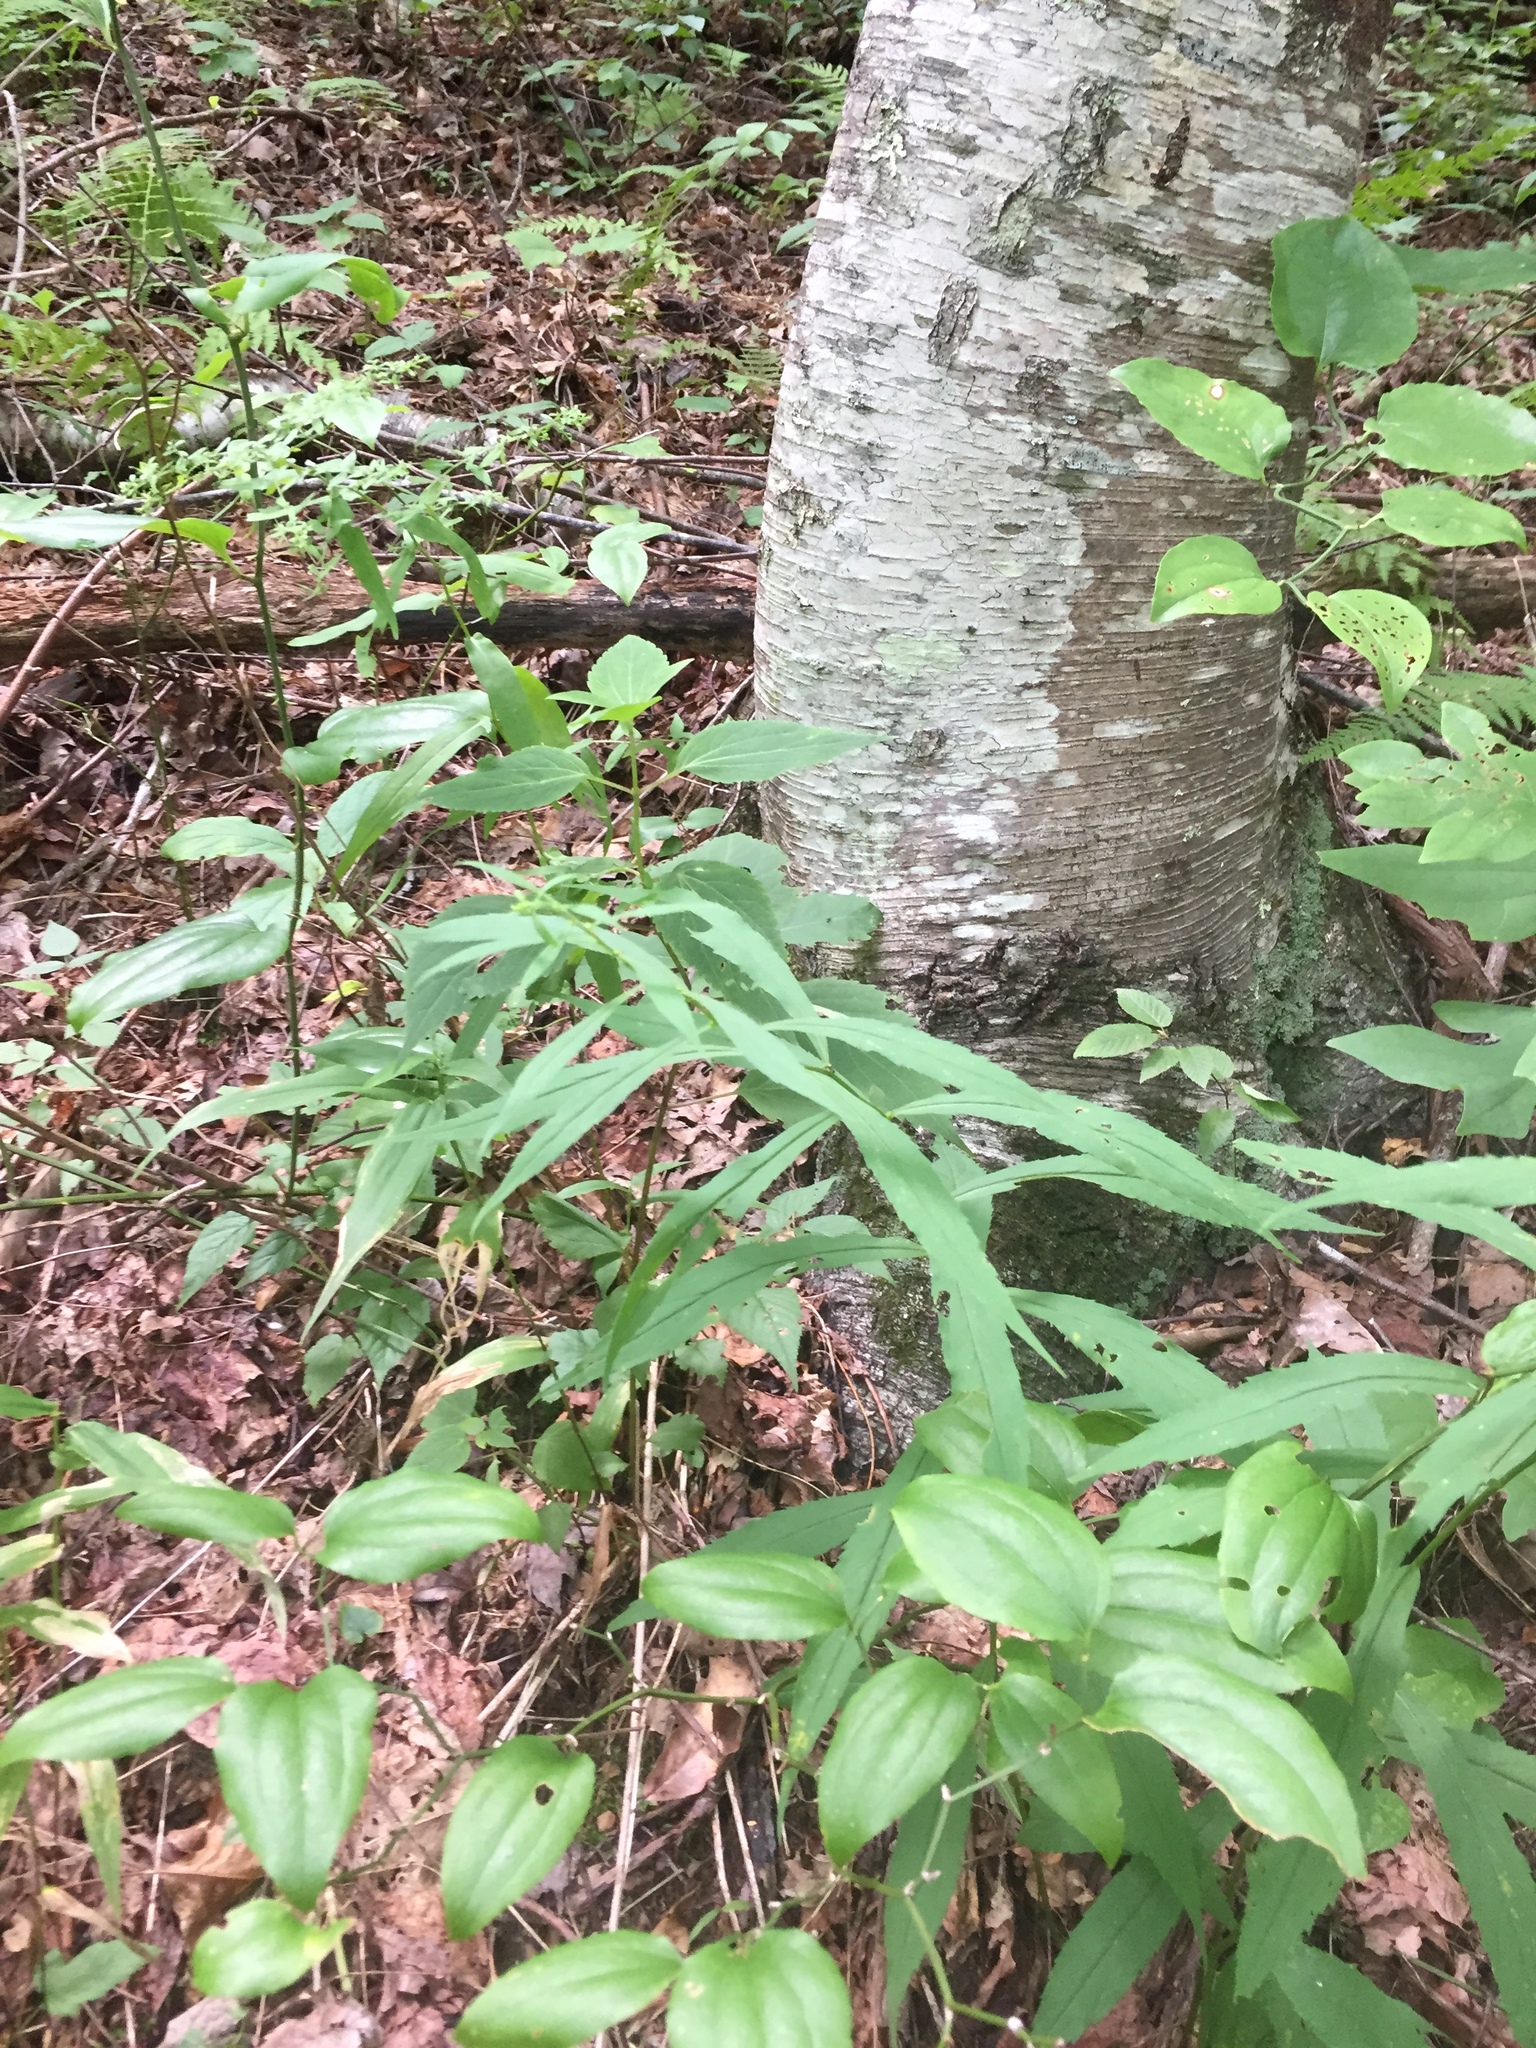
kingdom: Plantae
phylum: Tracheophyta
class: Magnoliopsida
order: Asterales
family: Asteraceae
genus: Solidago
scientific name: Solidago curtisii
